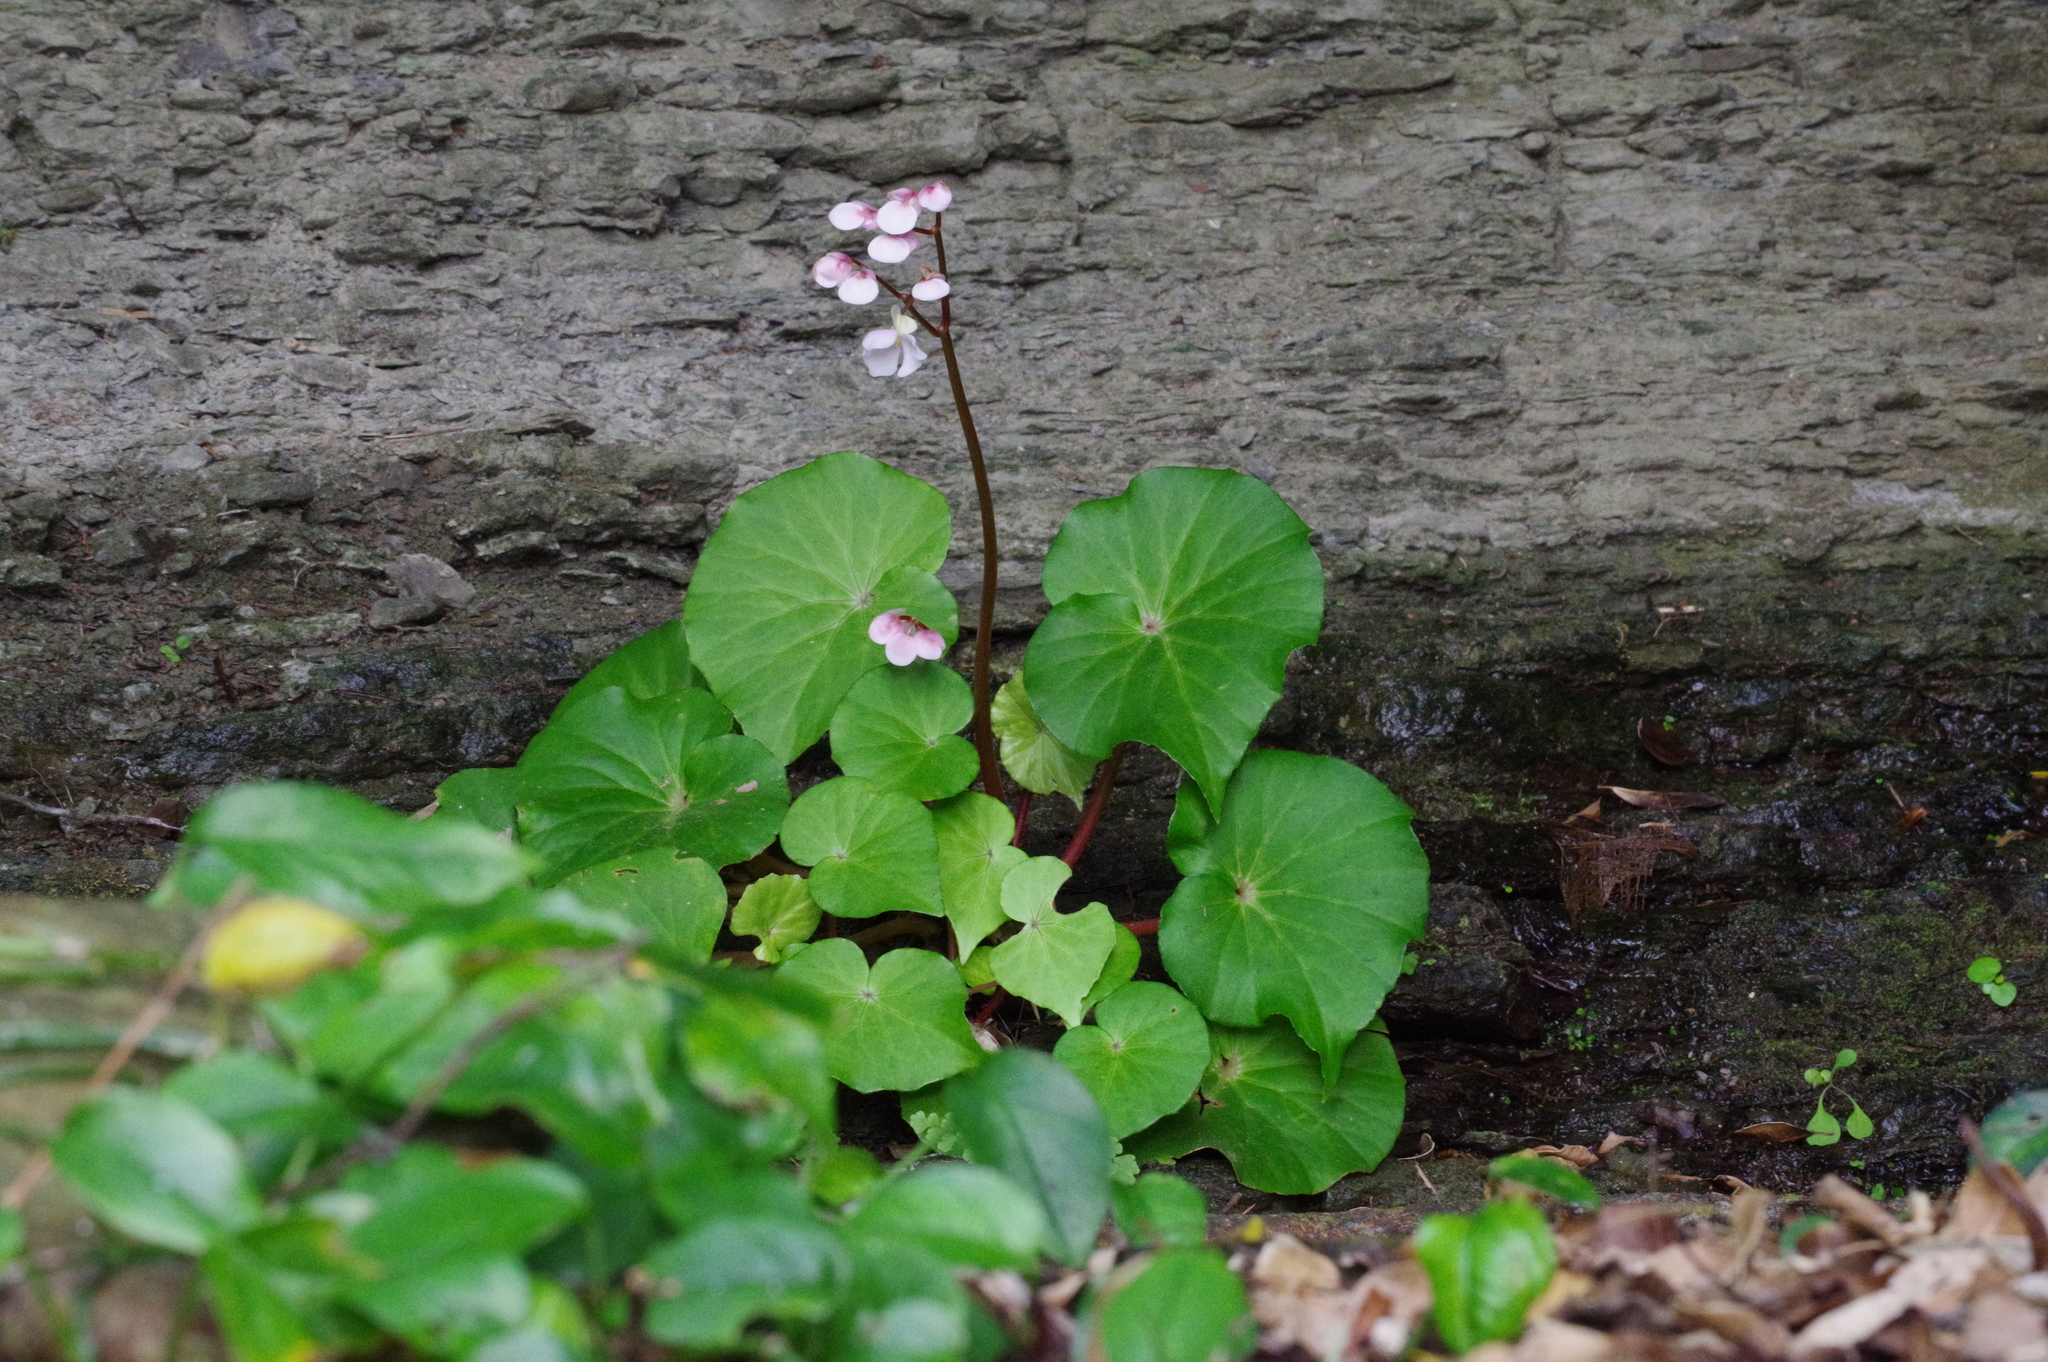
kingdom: Plantae
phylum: Tracheophyta
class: Magnoliopsida
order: Cucurbitales
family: Begoniaceae
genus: Begonia
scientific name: Begonia fenicis
